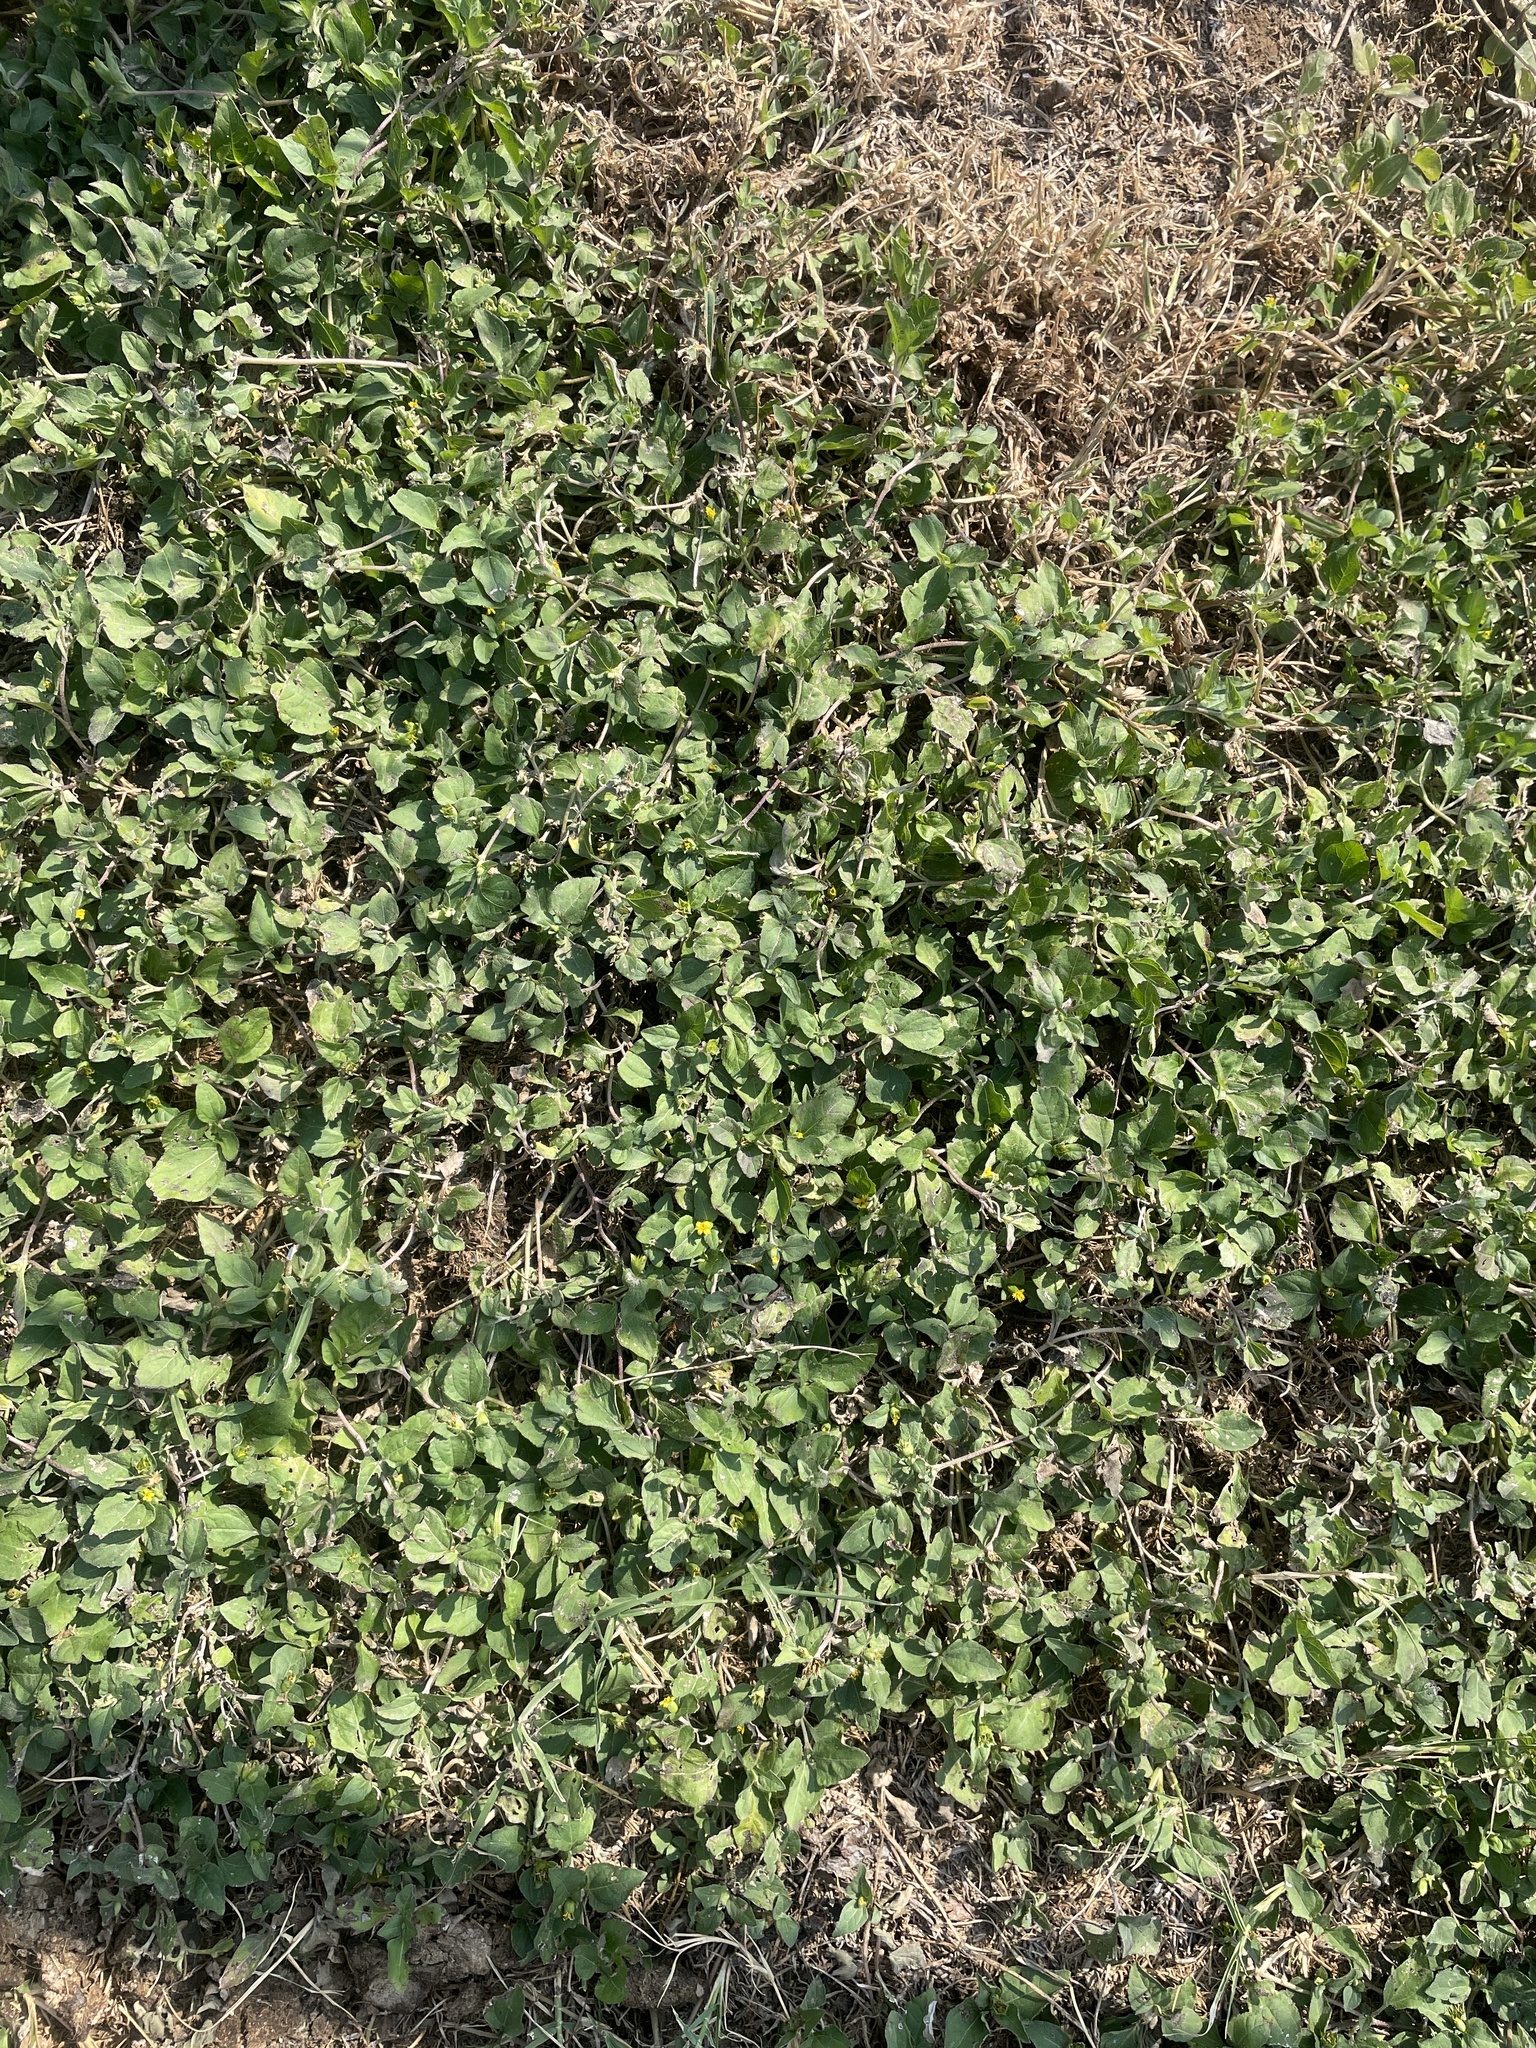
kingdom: Plantae
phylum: Tracheophyta
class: Magnoliopsida
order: Asterales
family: Asteraceae
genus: Calyptocarpus
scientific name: Calyptocarpus vialis
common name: Straggler daisy
